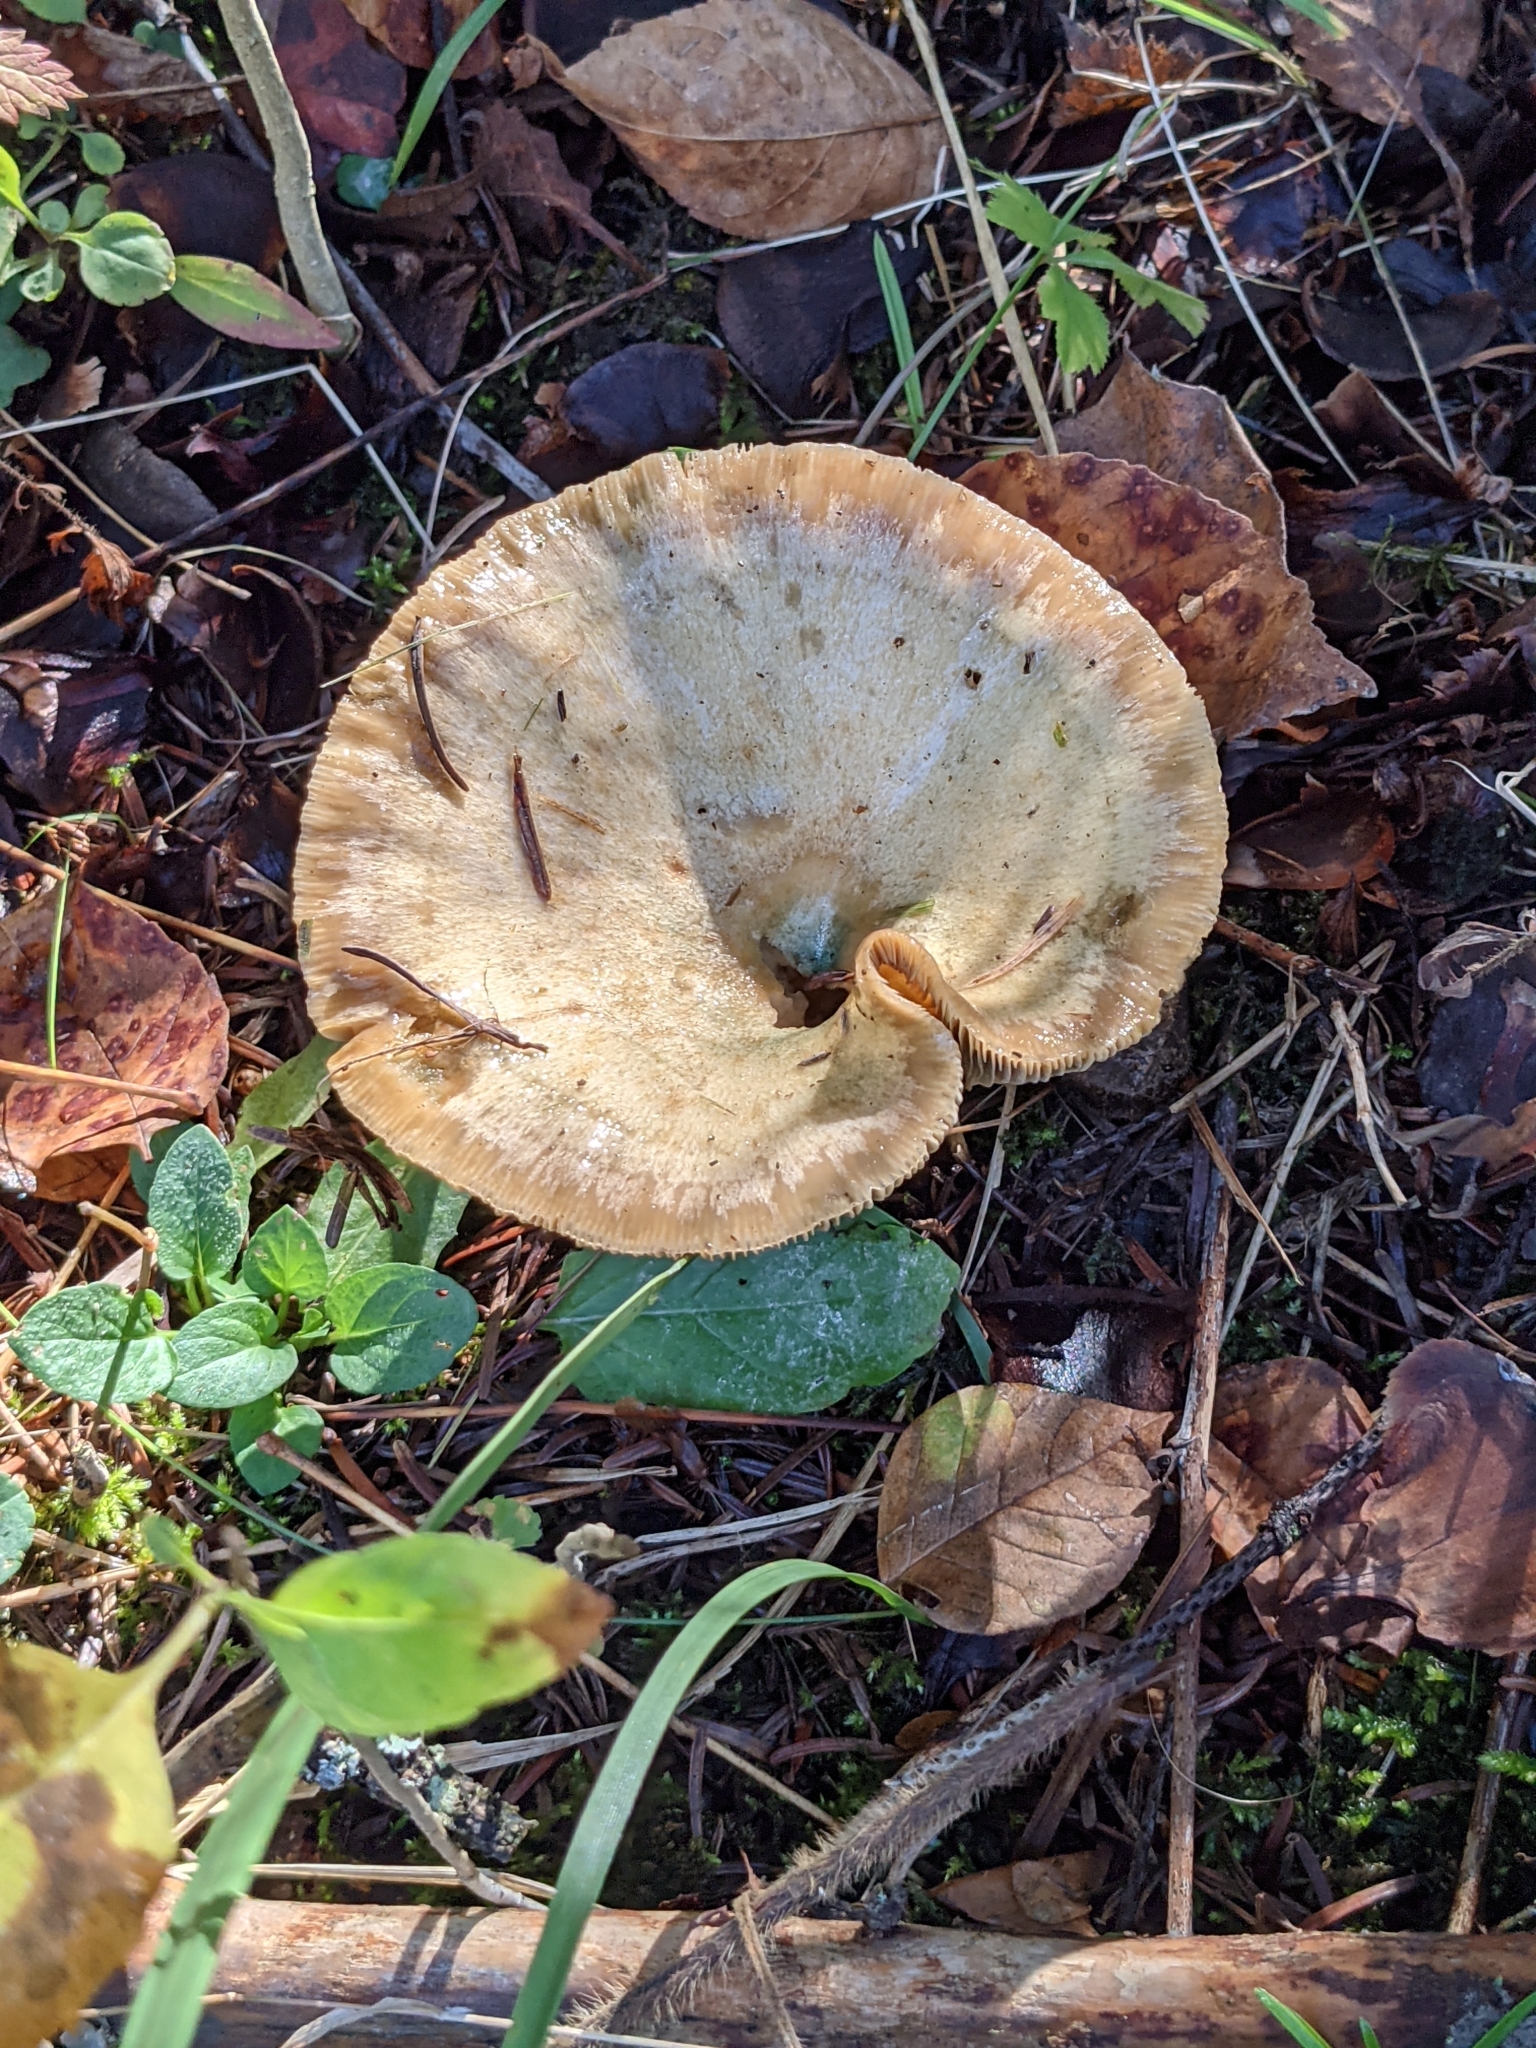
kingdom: Fungi
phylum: Basidiomycota
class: Agaricomycetes
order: Boletales
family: Paxillaceae
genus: Paxillus
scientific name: Paxillus involutus
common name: Brown roll rim
